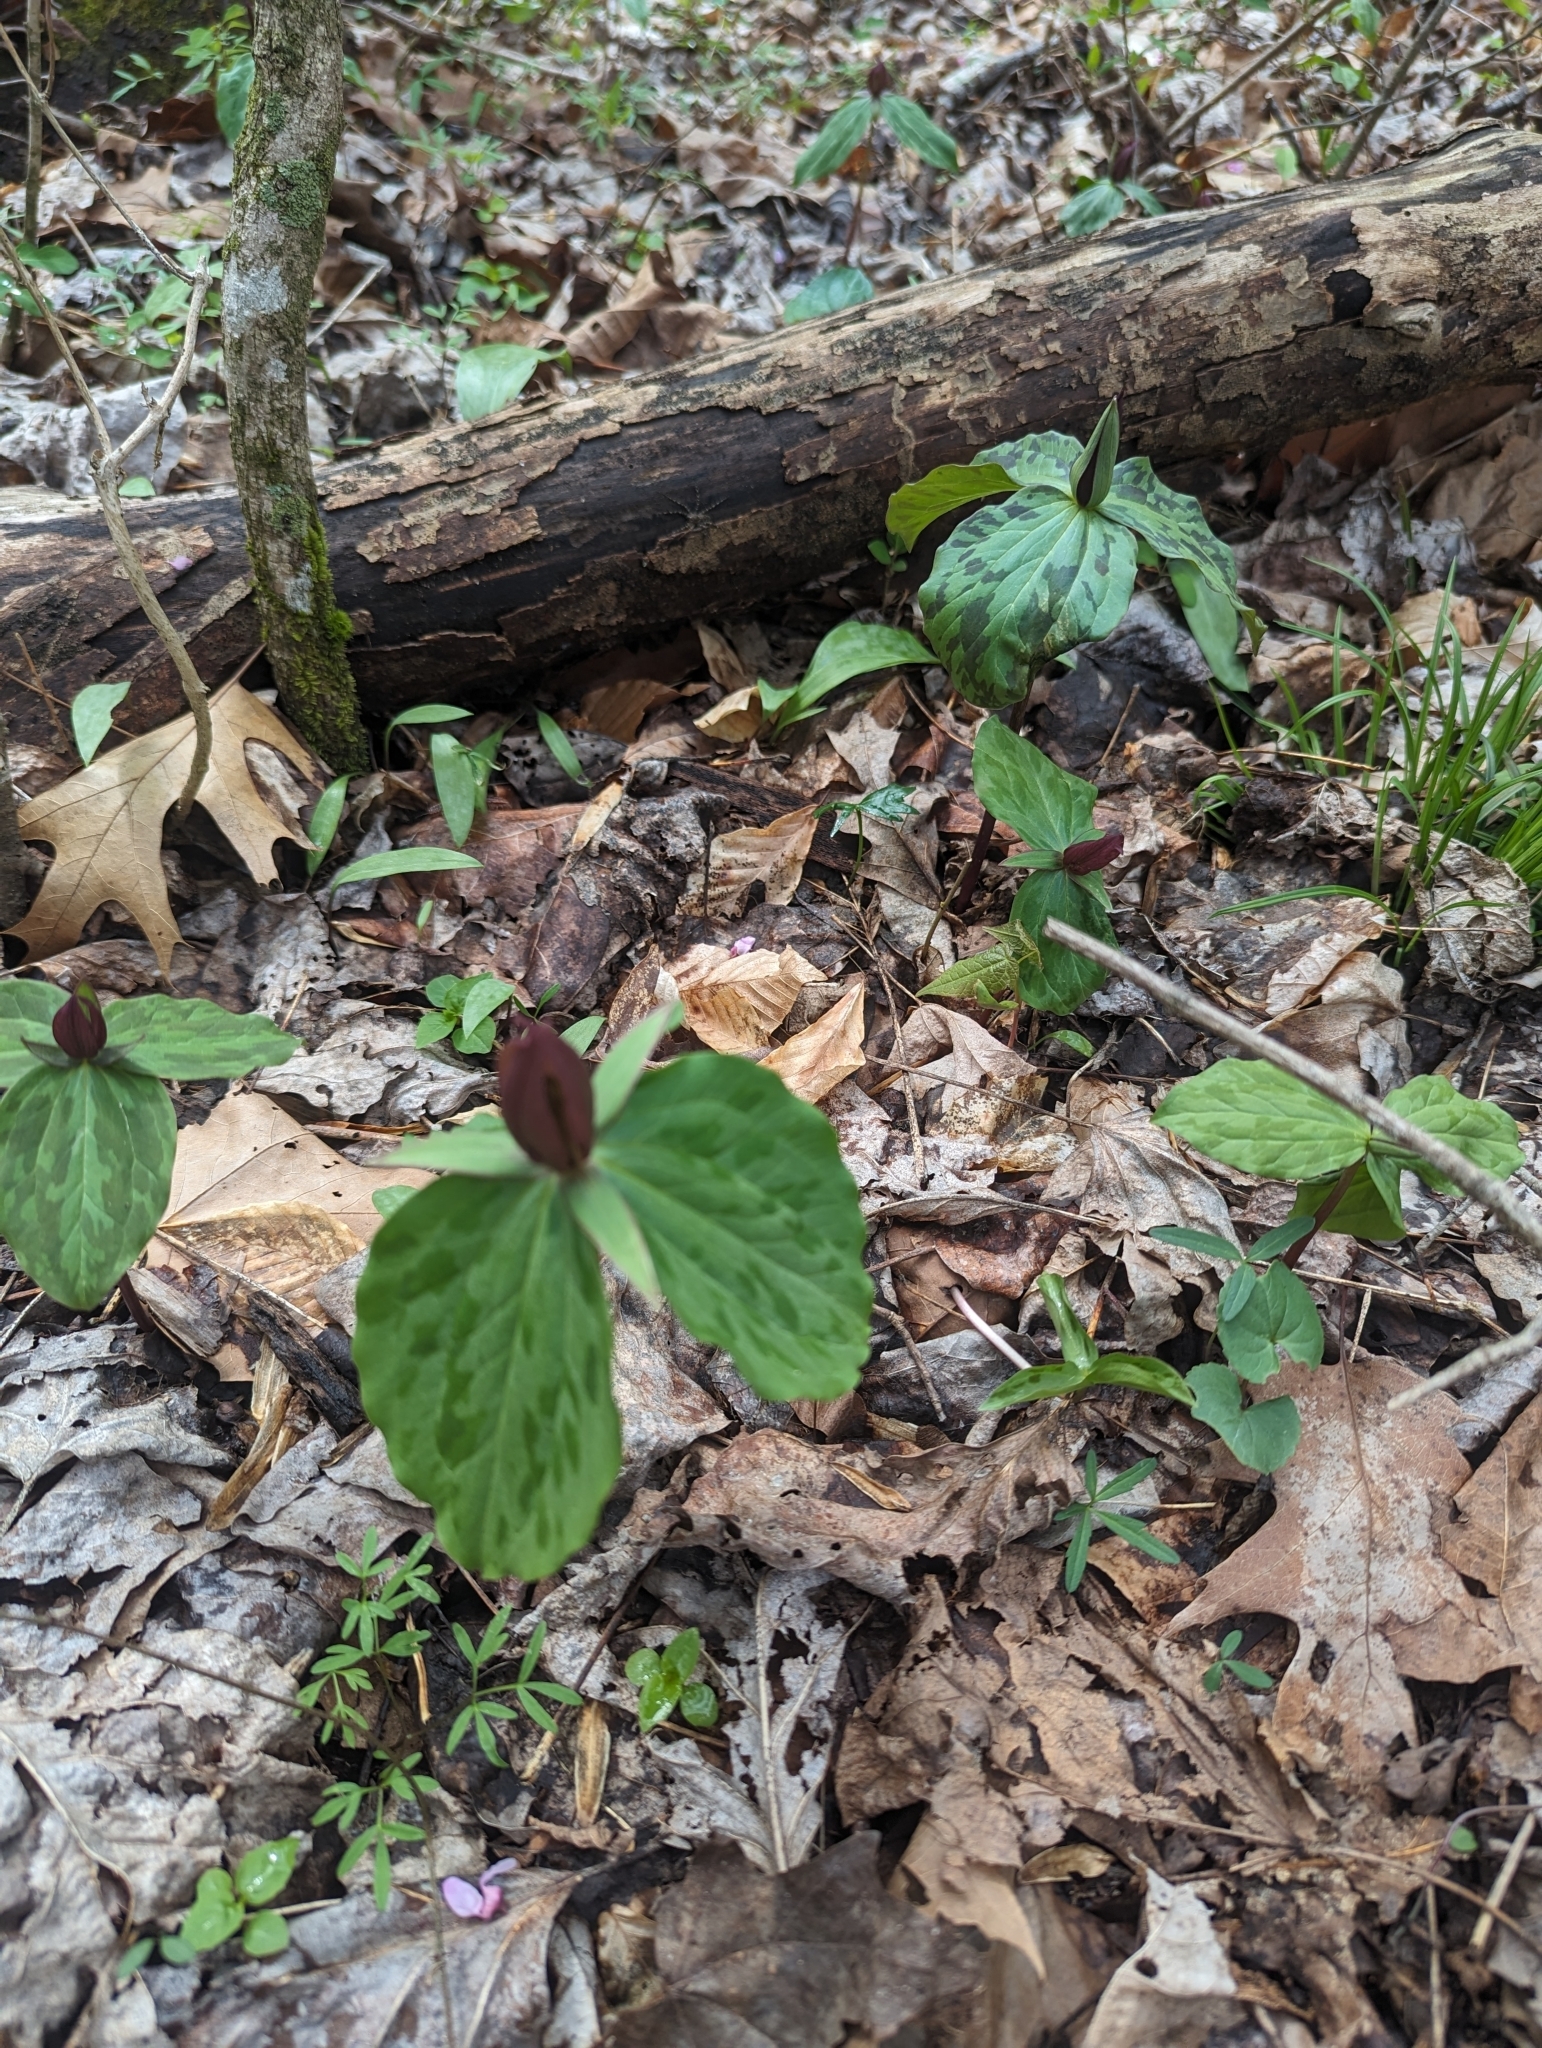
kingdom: Plantae
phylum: Tracheophyta
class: Liliopsida
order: Liliales
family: Melanthiaceae
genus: Trillium
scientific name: Trillium sessile
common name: Sessile trillium
